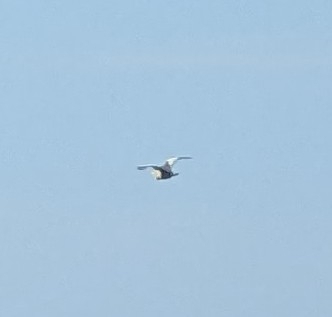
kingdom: Animalia
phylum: Chordata
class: Aves
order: Pelecaniformes
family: Ardeidae
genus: Ixobrychus
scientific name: Ixobrychus minutus
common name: Little bittern
